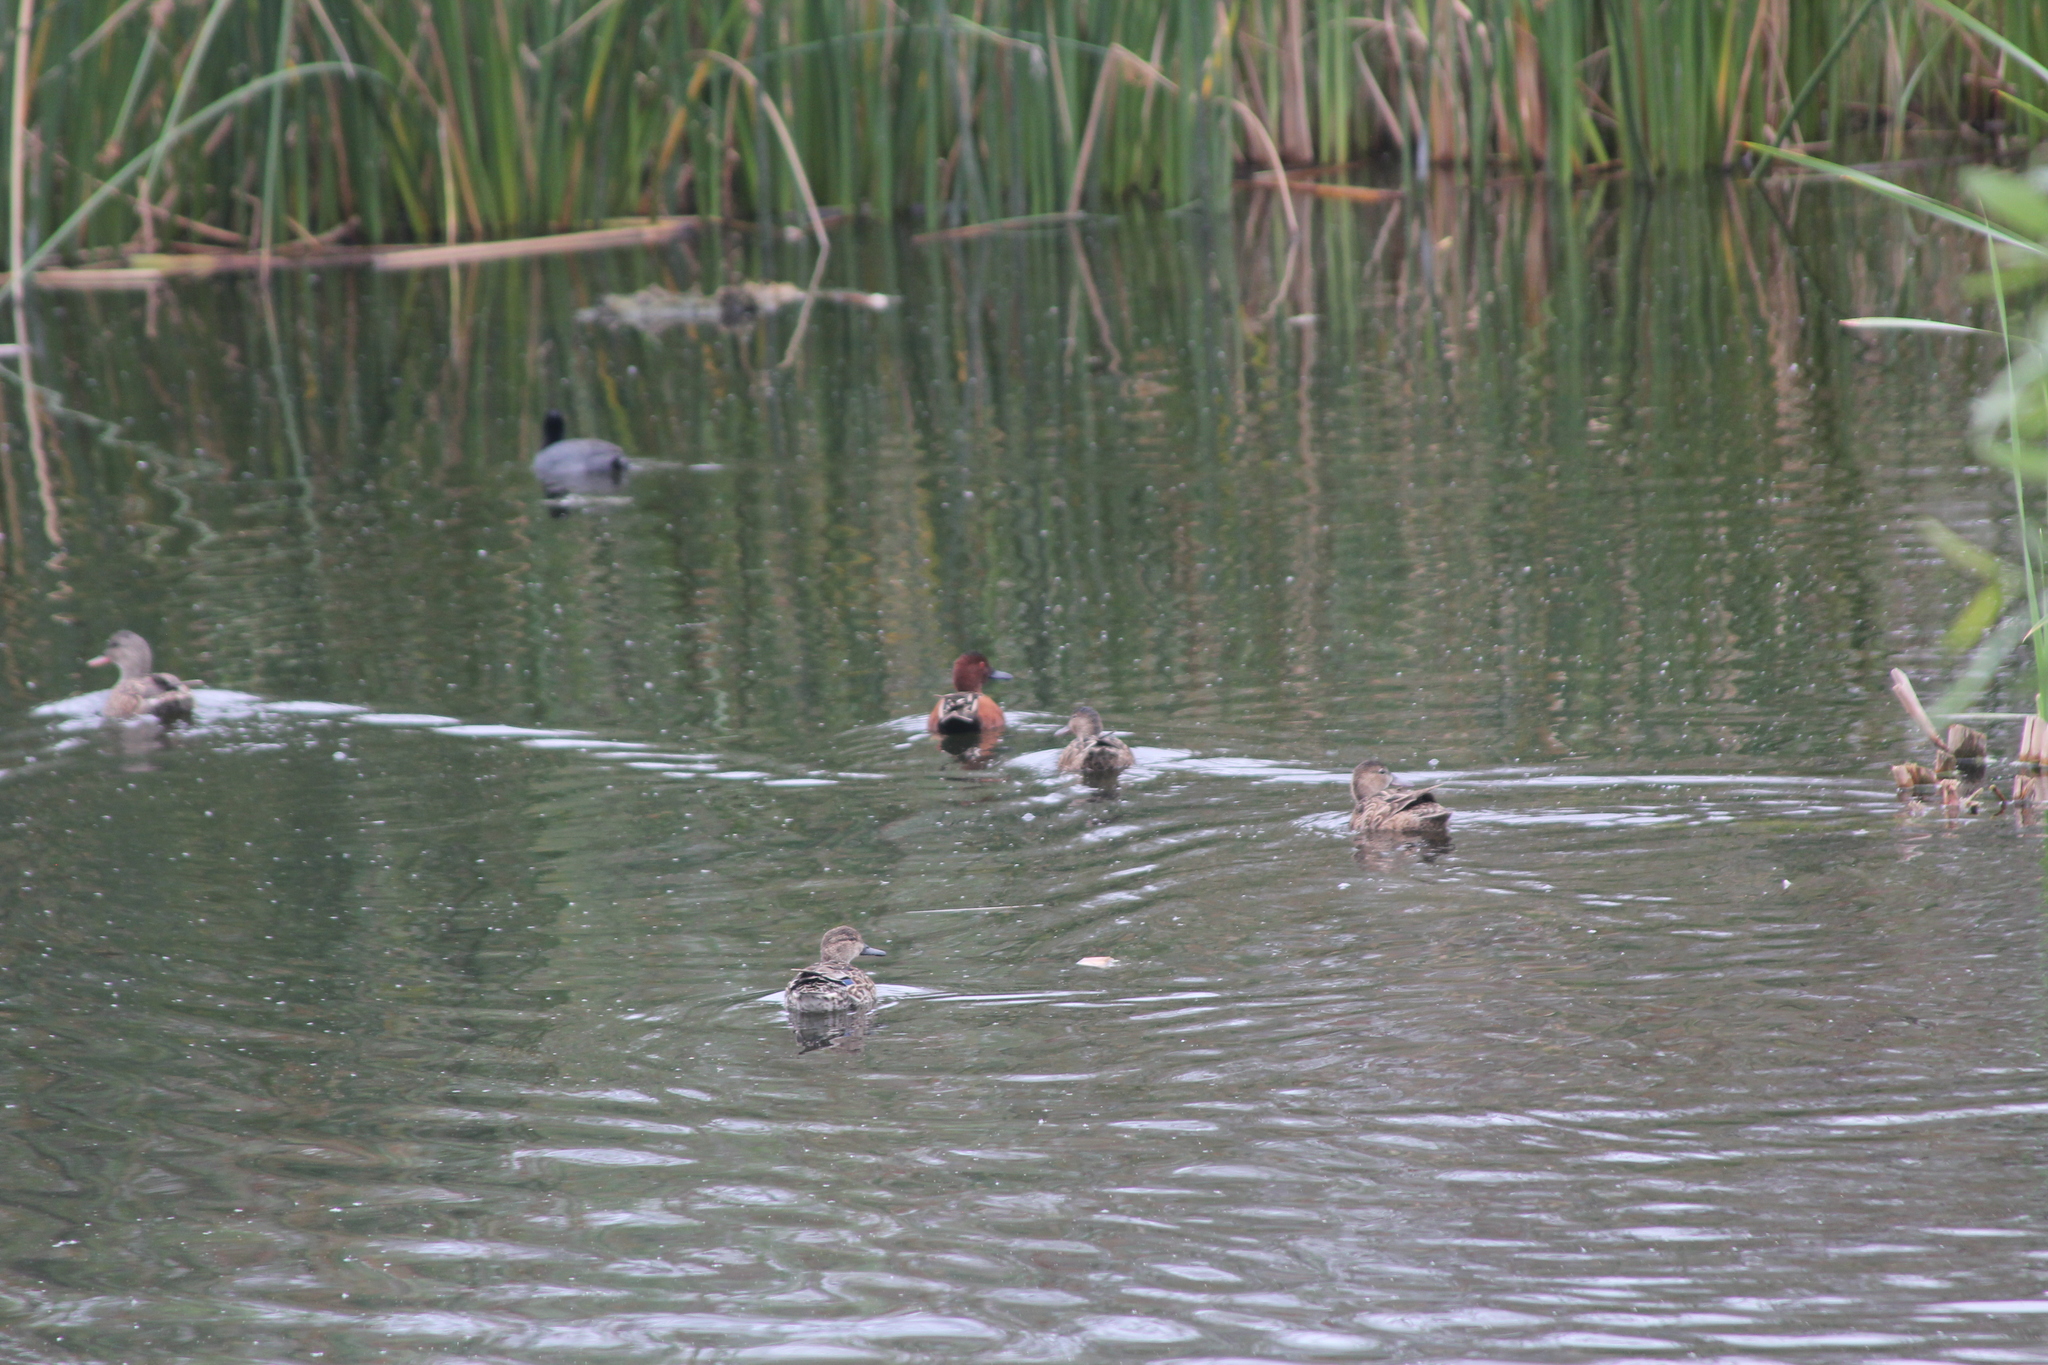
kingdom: Animalia
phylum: Chordata
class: Aves
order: Anseriformes
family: Anatidae
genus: Spatula
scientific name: Spatula cyanoptera
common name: Cinnamon teal
